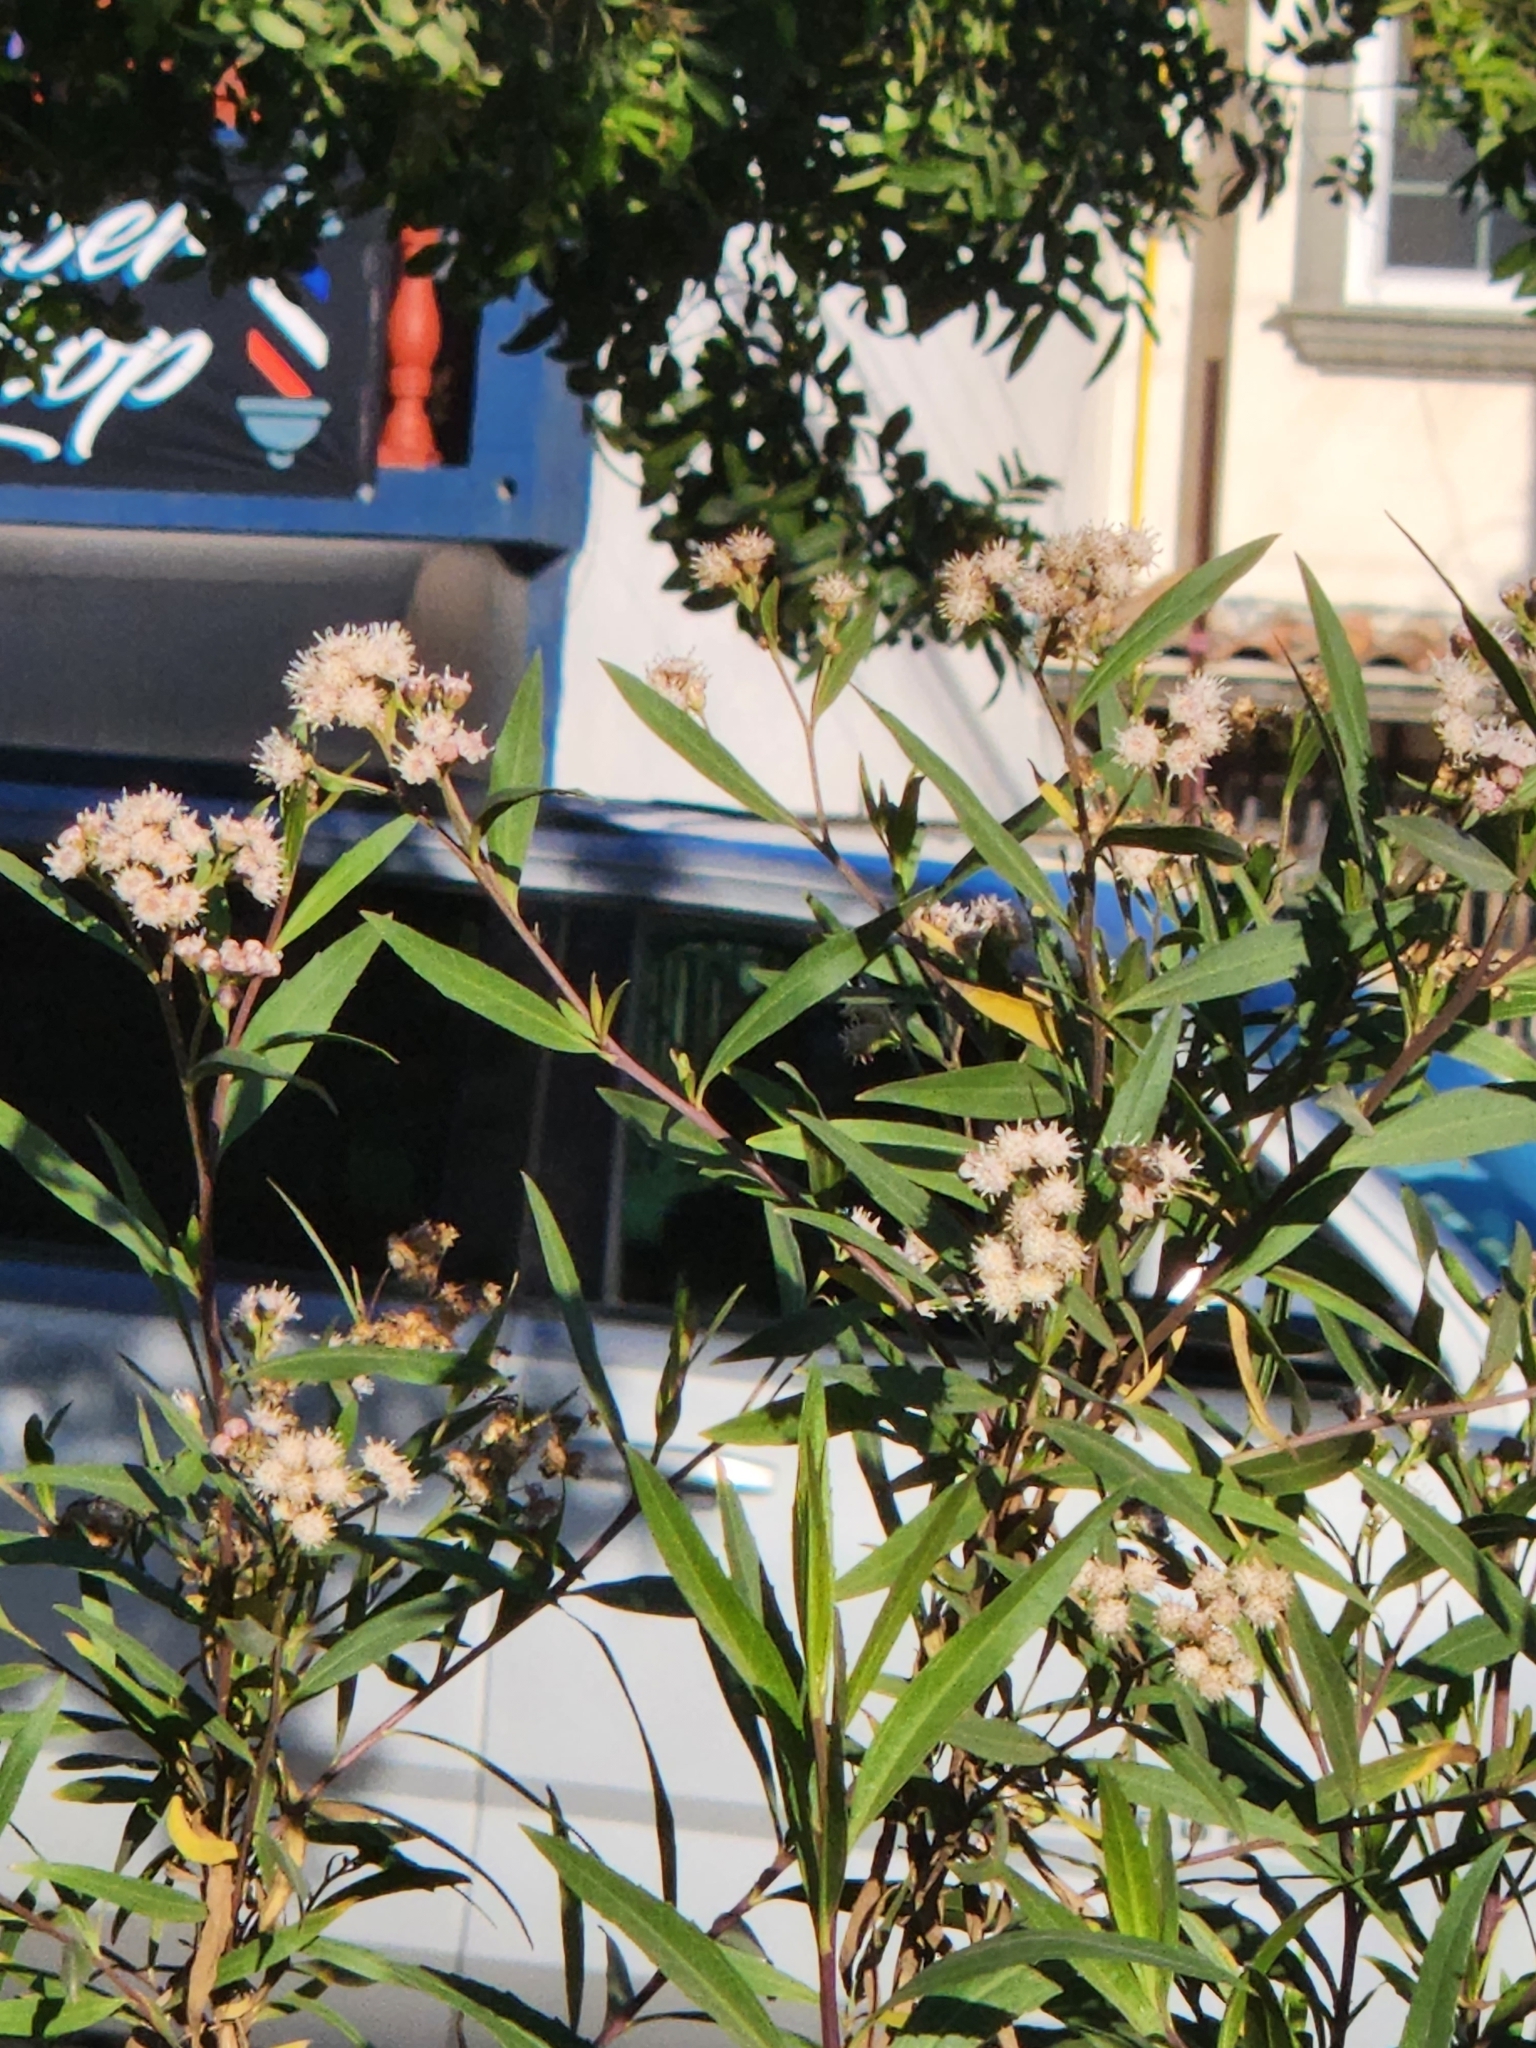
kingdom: Plantae
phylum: Tracheophyta
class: Magnoliopsida
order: Asterales
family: Asteraceae
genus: Baccharis
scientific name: Baccharis salicifolia
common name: Sticky baccharis
